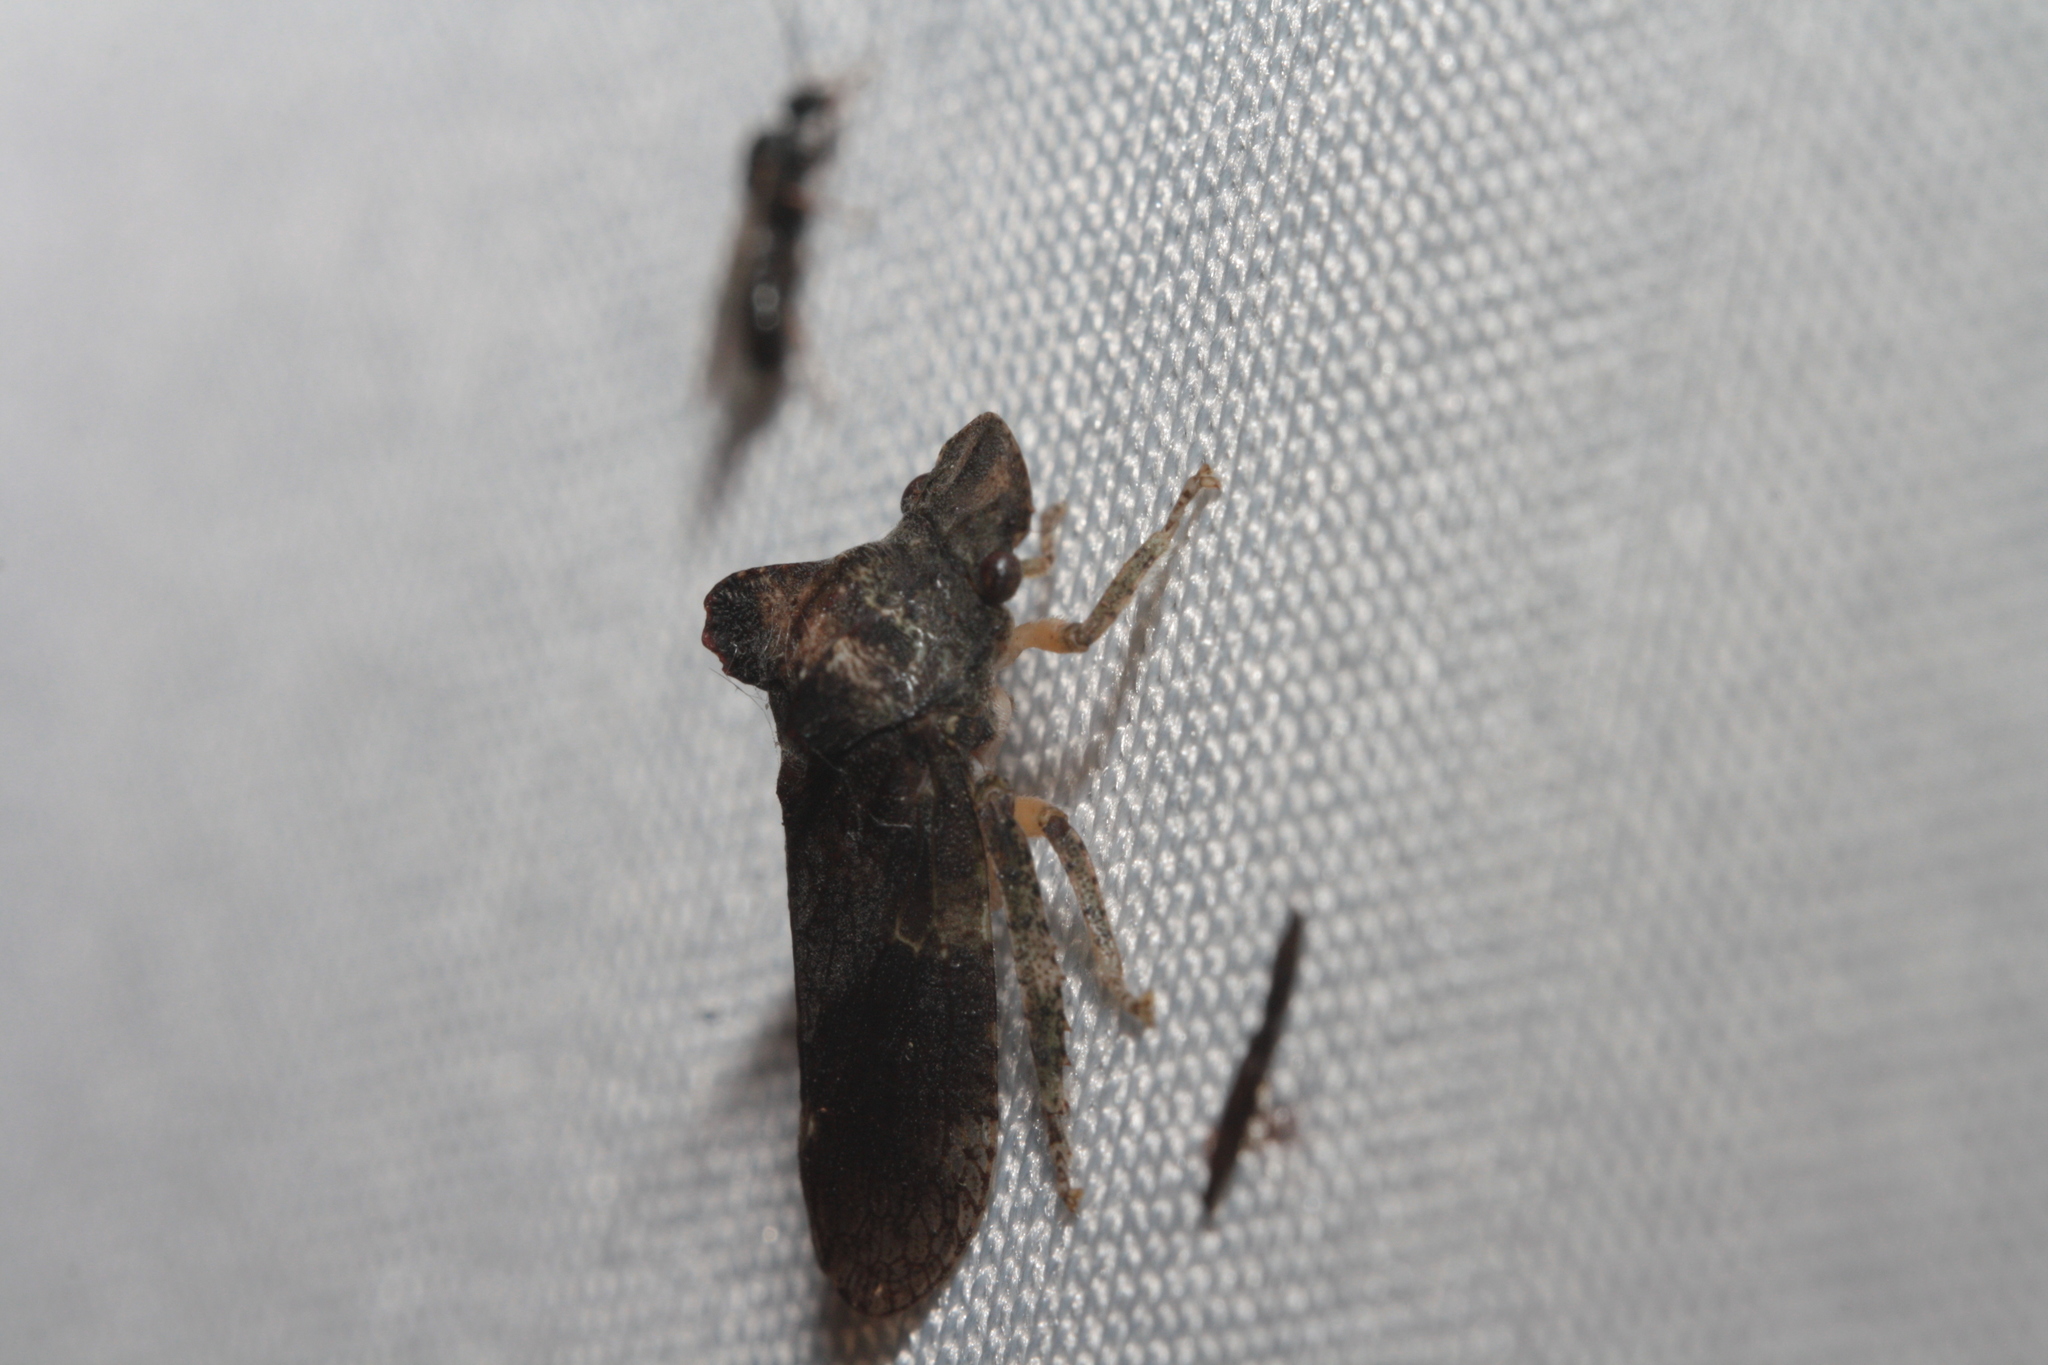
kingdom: Animalia
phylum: Arthropoda
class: Insecta
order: Hemiptera
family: Cicadellidae
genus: Ledra
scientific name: Ledra aurita
